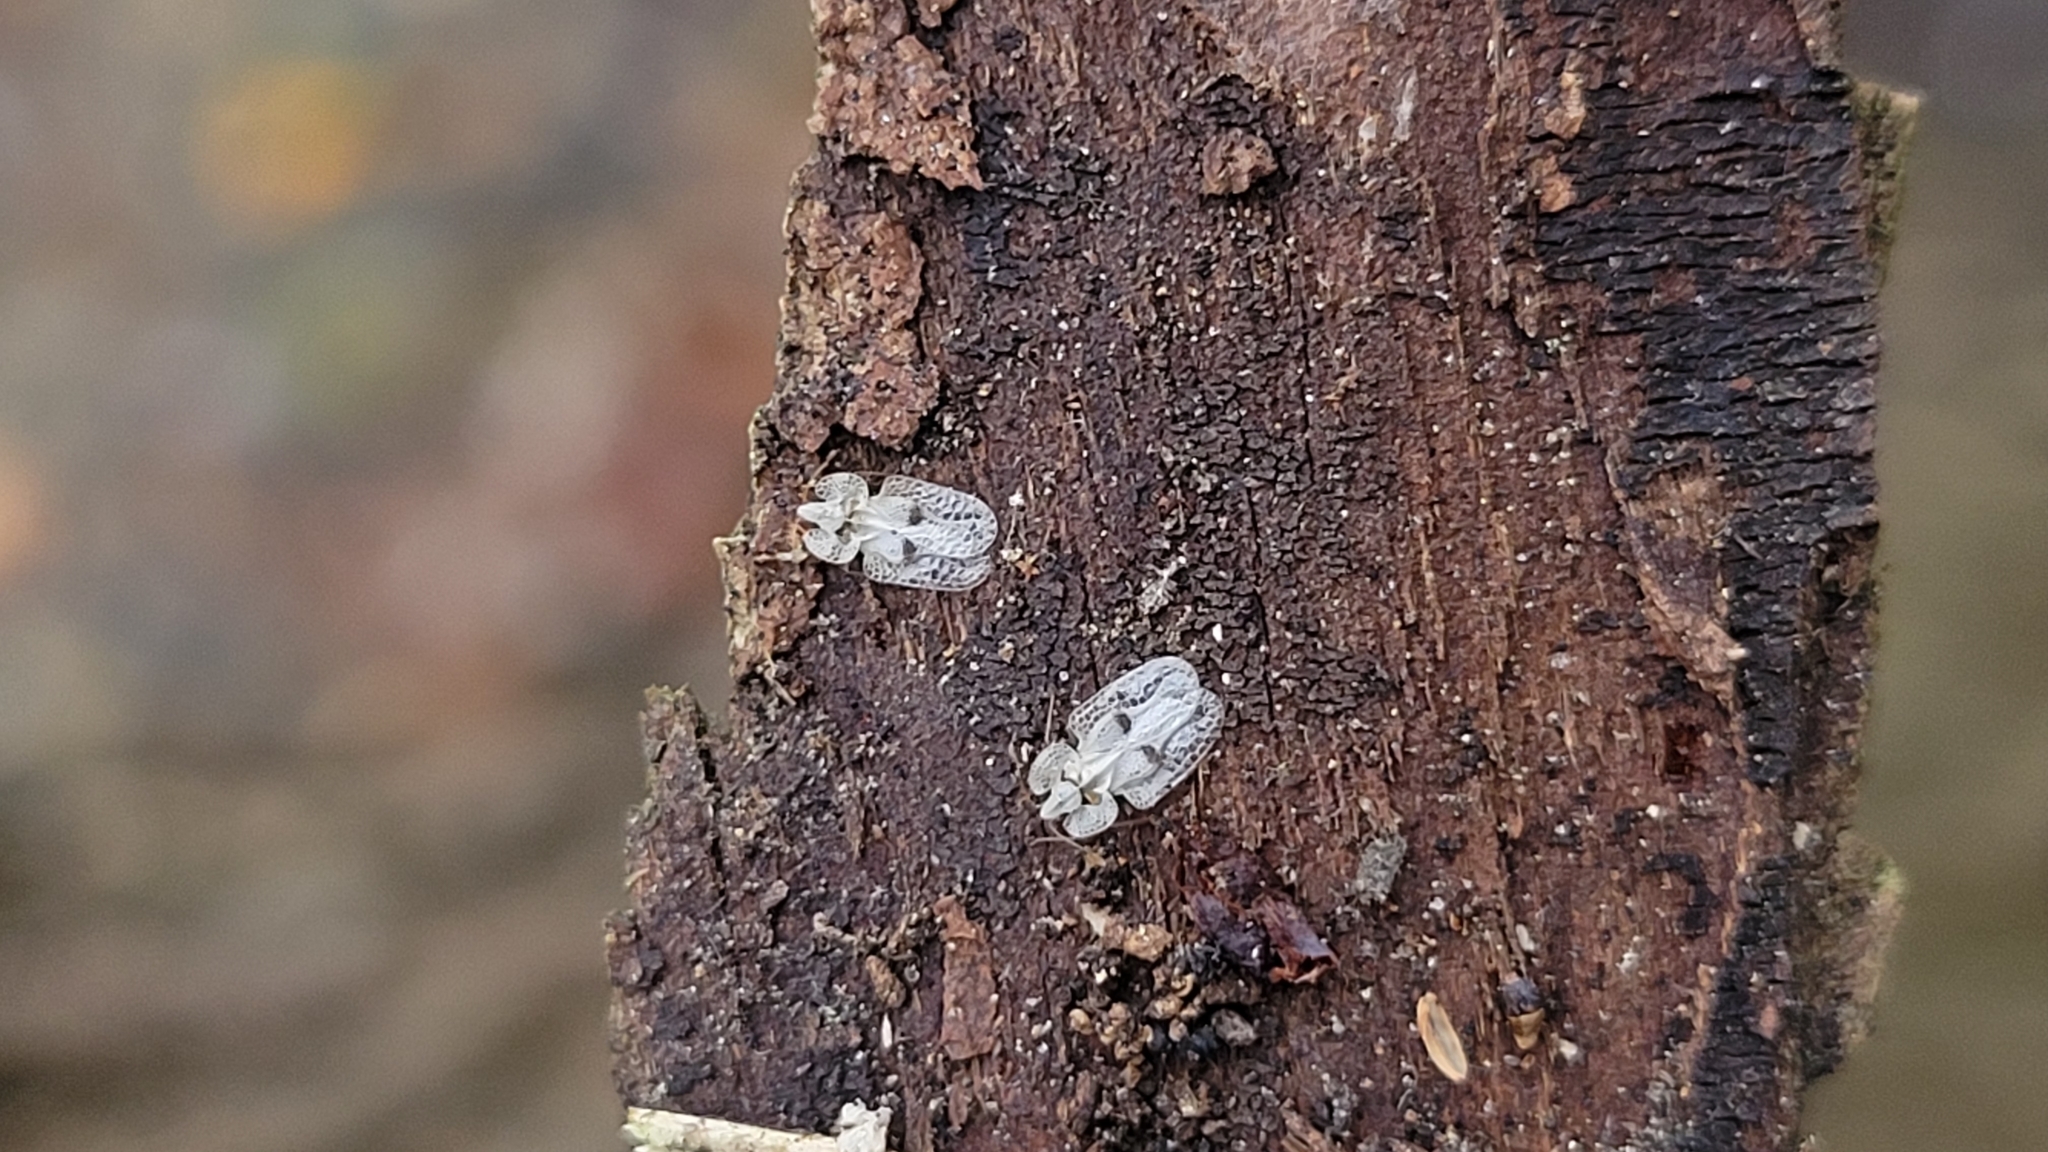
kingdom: Animalia
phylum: Arthropoda
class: Insecta
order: Hemiptera
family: Tingidae
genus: Corythucha
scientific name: Corythucha ciliata
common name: Sycamore lace bug
